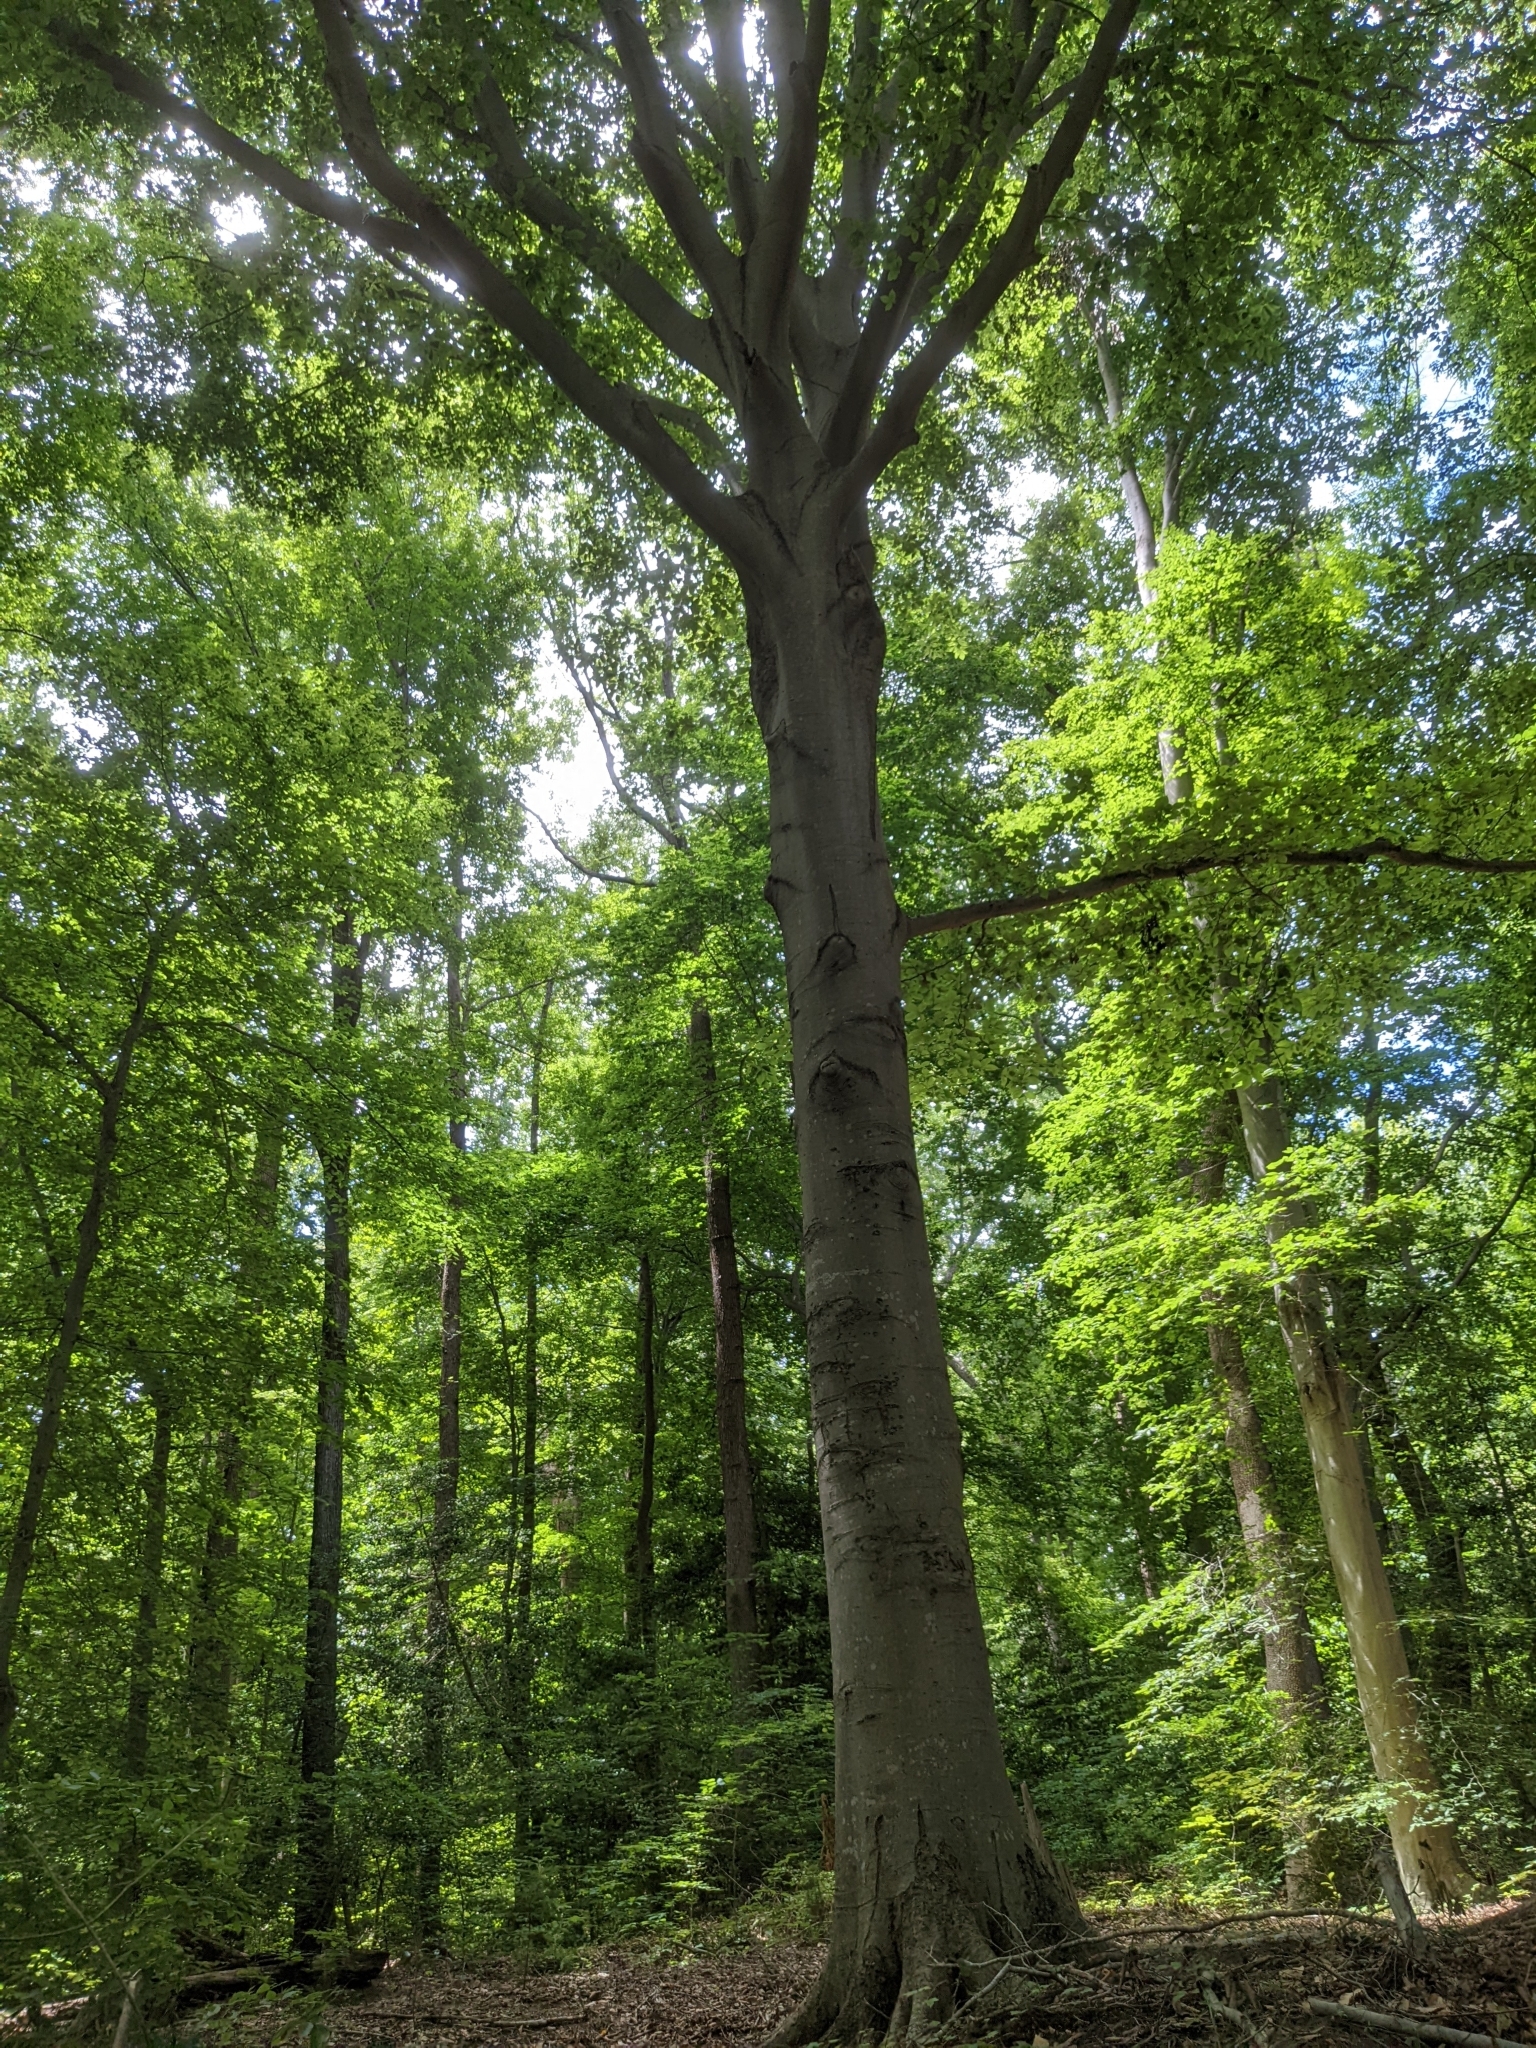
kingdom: Plantae
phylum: Tracheophyta
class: Magnoliopsida
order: Fagales
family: Fagaceae
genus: Fagus
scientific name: Fagus grandifolia
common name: American beech
